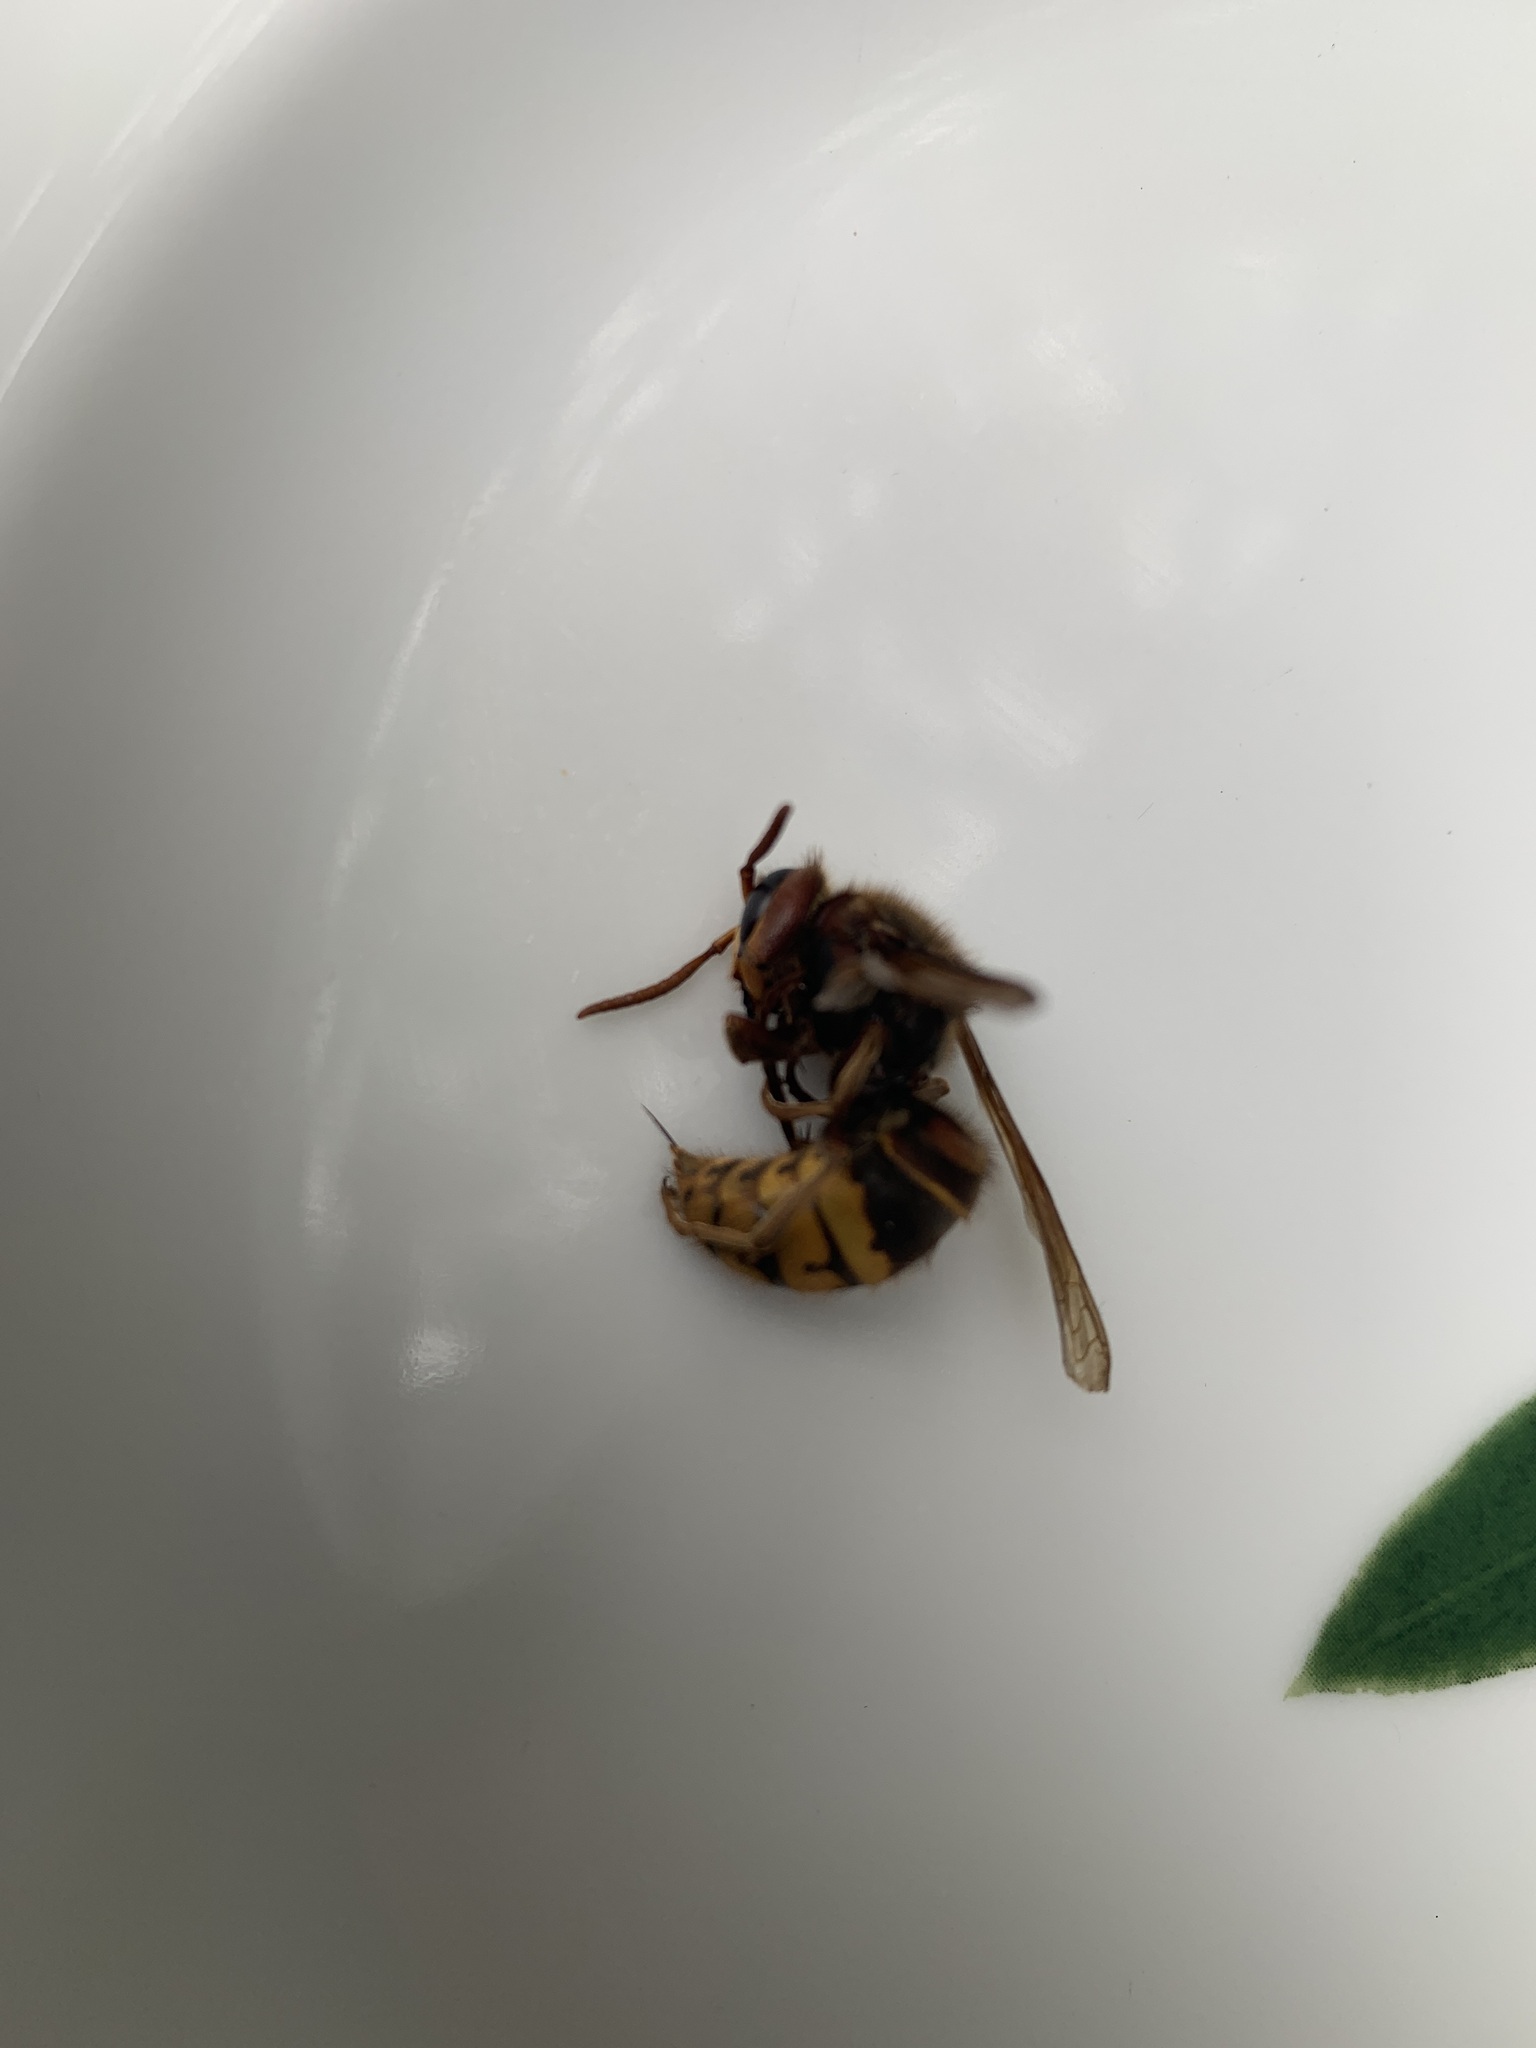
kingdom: Animalia
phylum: Arthropoda
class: Insecta
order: Hymenoptera
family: Vespidae
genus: Vespa
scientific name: Vespa crabro
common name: Hornet
